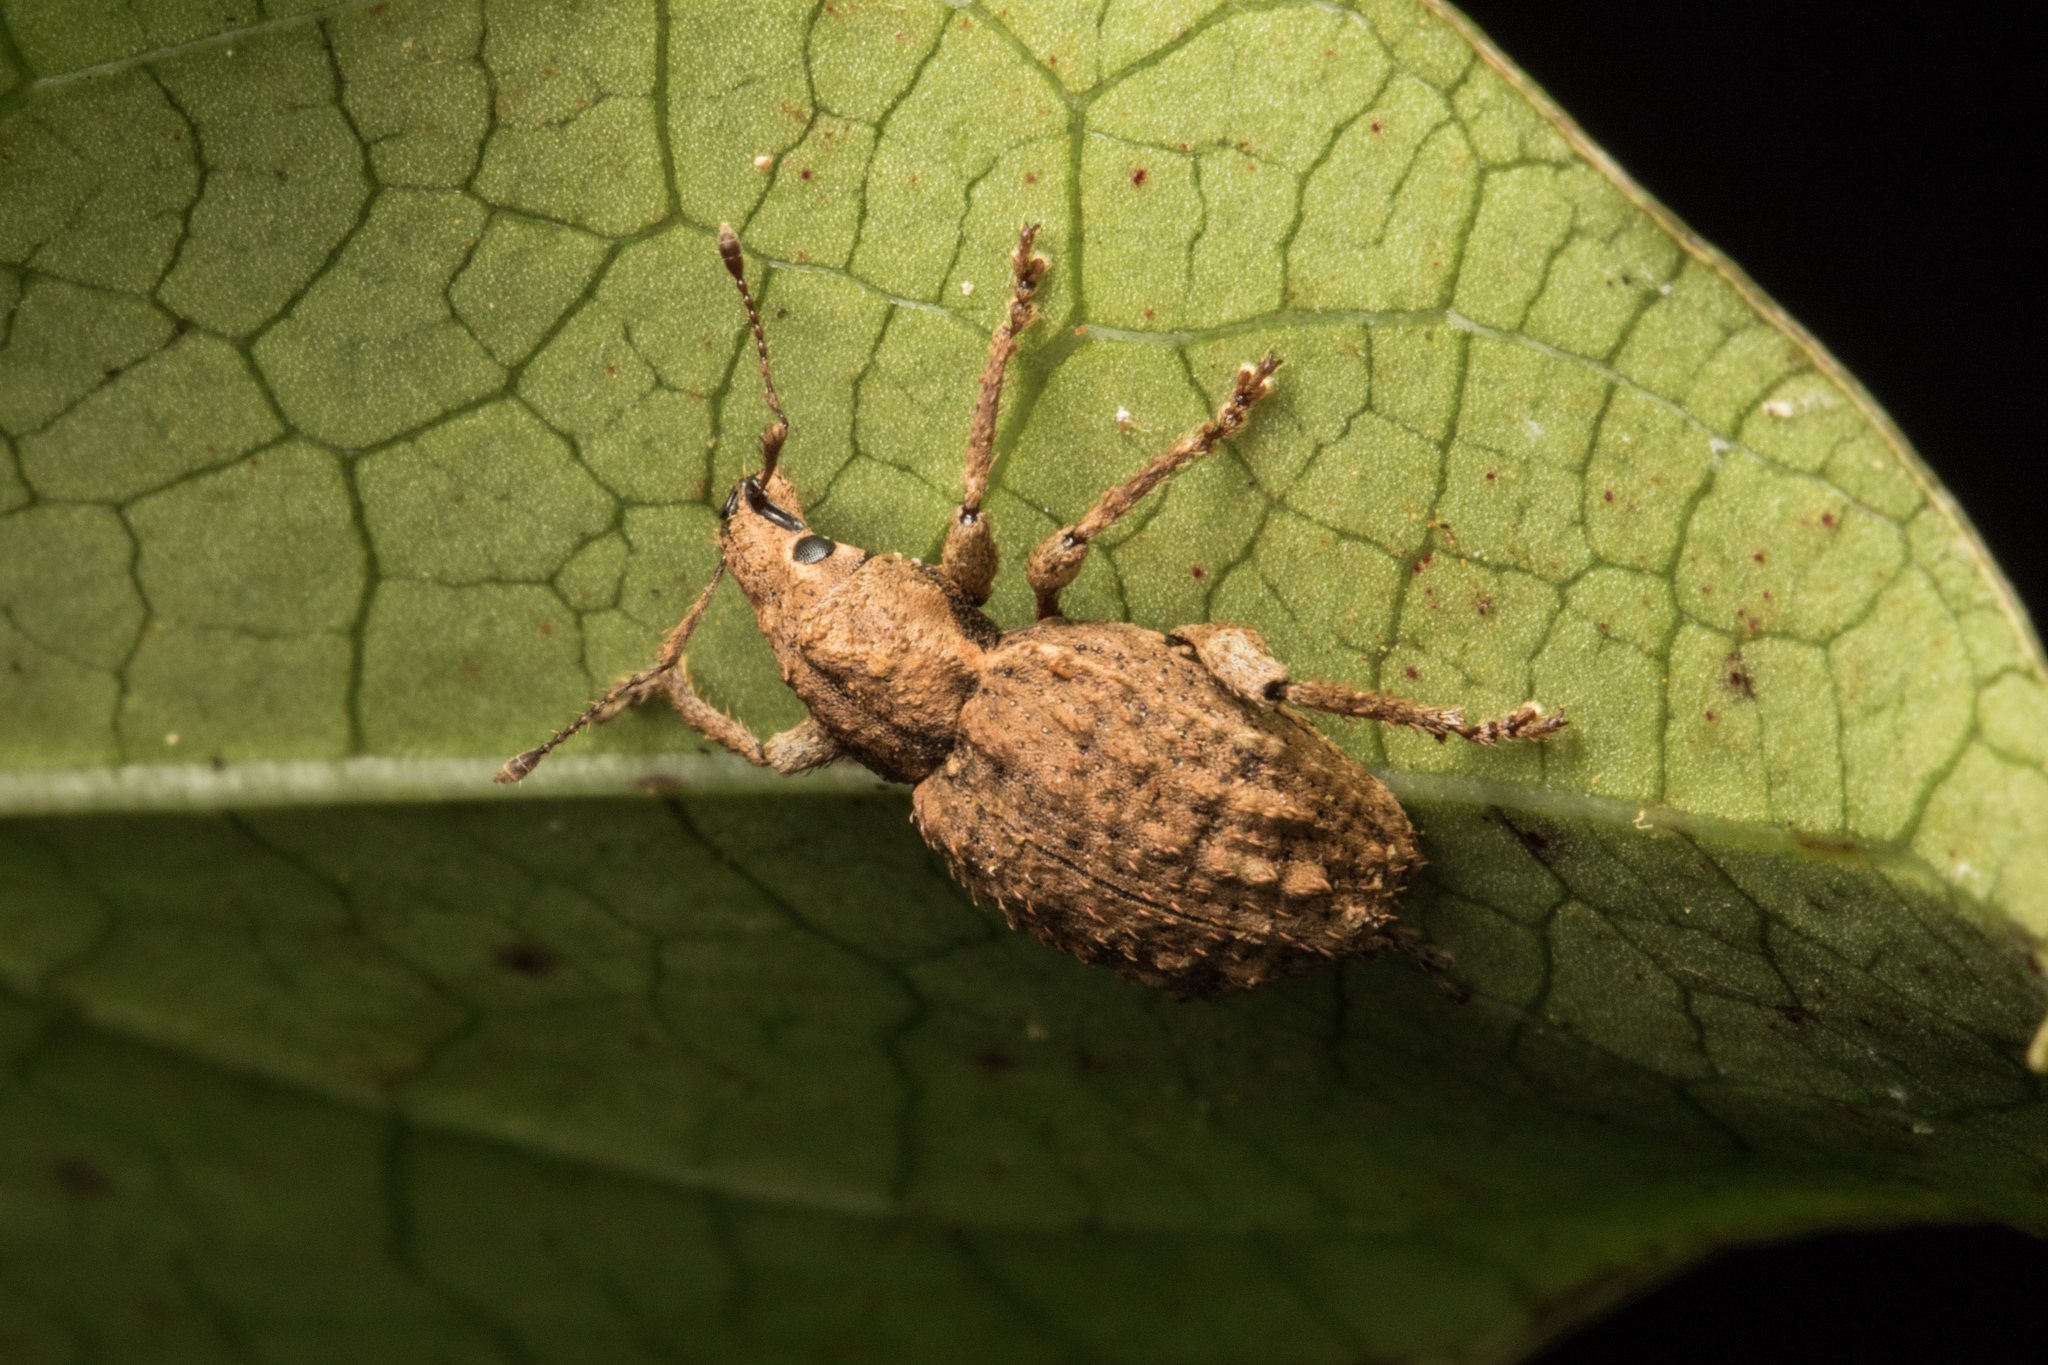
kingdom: Animalia
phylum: Arthropoda
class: Insecta
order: Coleoptera
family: Curculionidae
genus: Catoptes
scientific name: Catoptes binodis
